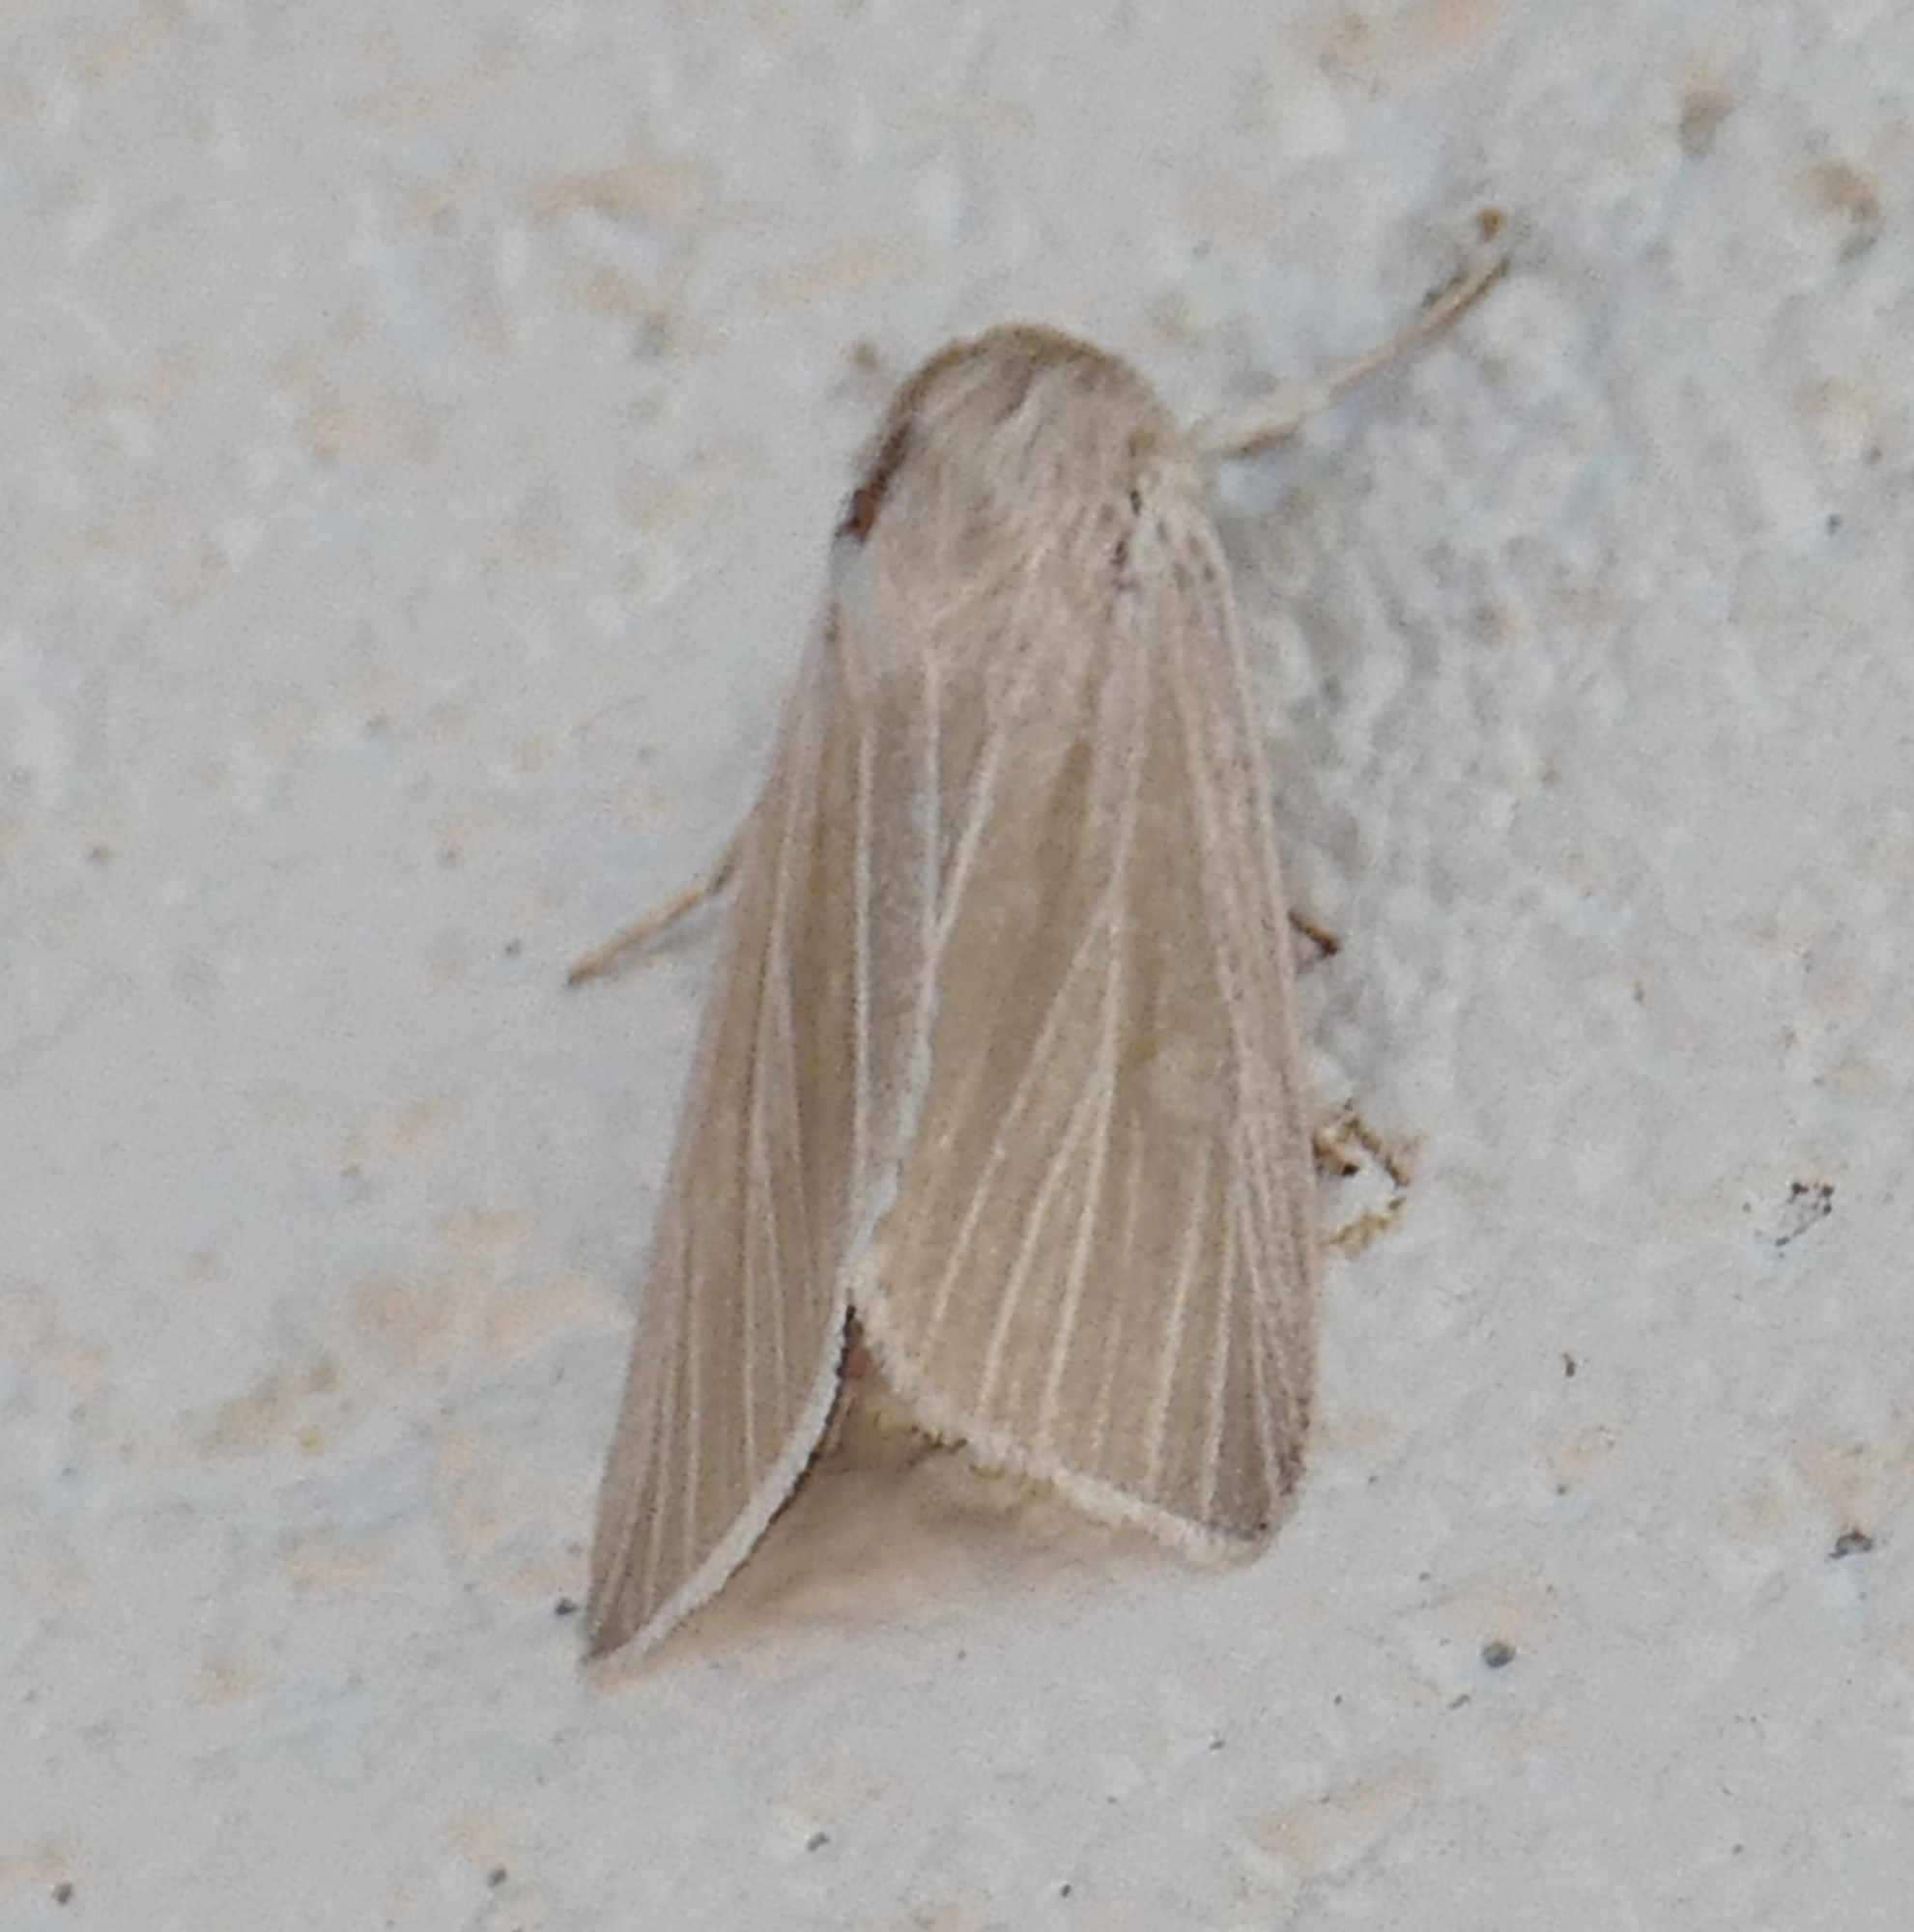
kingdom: Animalia
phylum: Arthropoda
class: Insecta
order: Lepidoptera
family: Noctuidae
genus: Acronicta
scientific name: Acronicta insularis
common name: Henry's marsh moth
